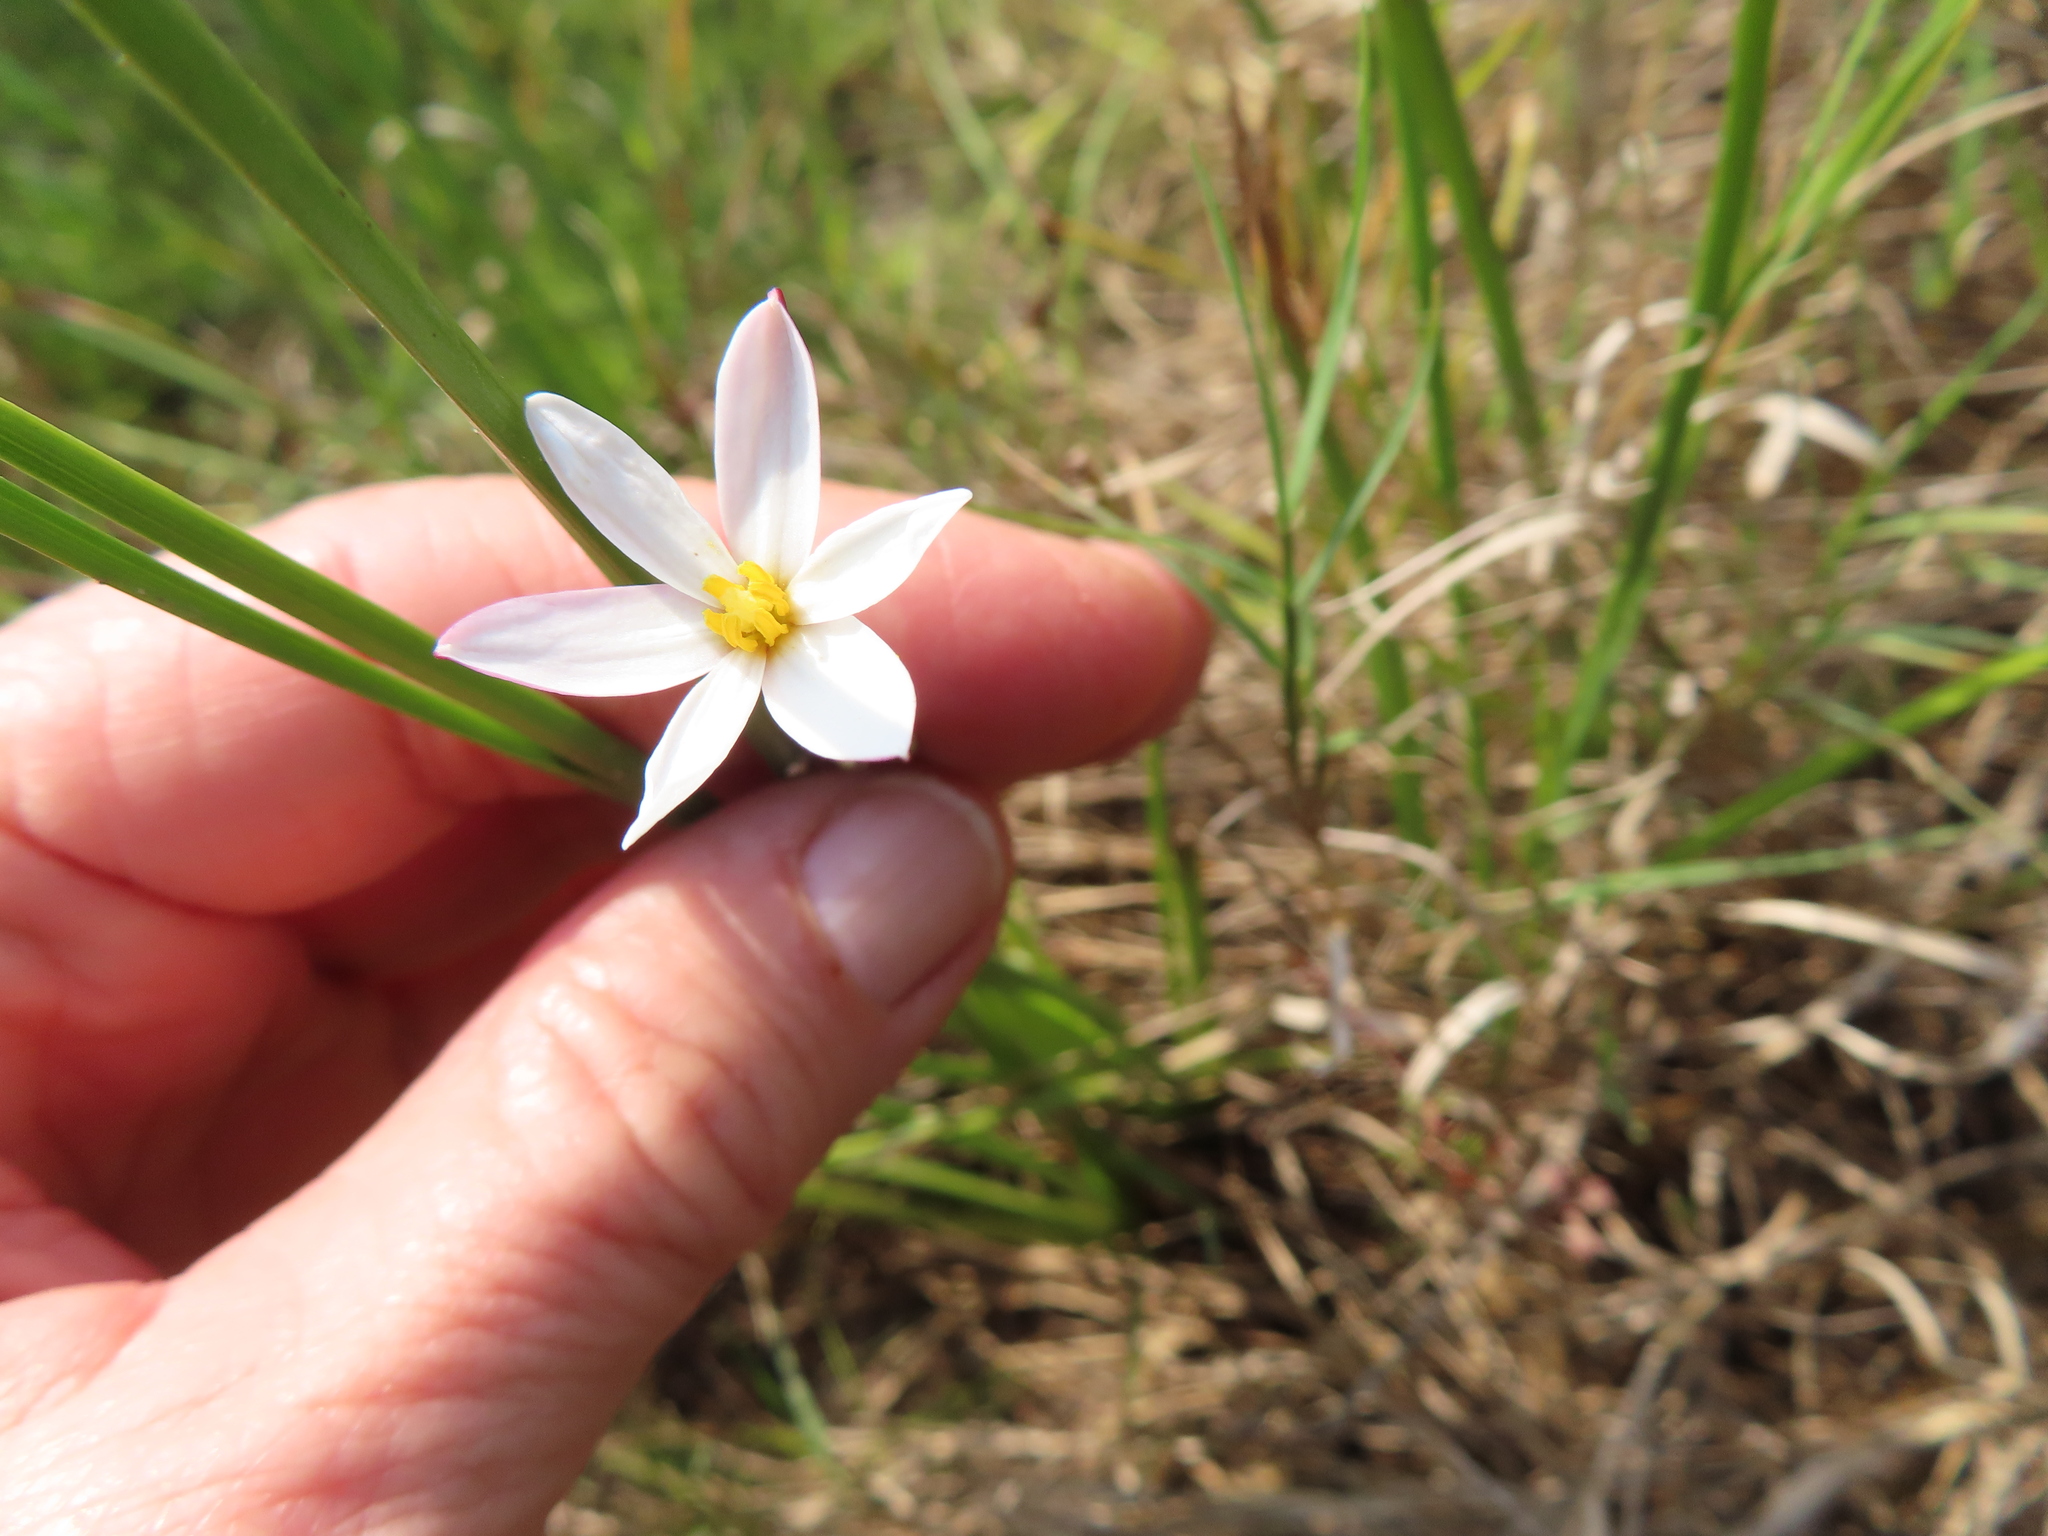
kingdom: Plantae
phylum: Tracheophyta
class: Liliopsida
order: Asparagales
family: Hypoxidaceae
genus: Pauridia
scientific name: Pauridia aquatica
